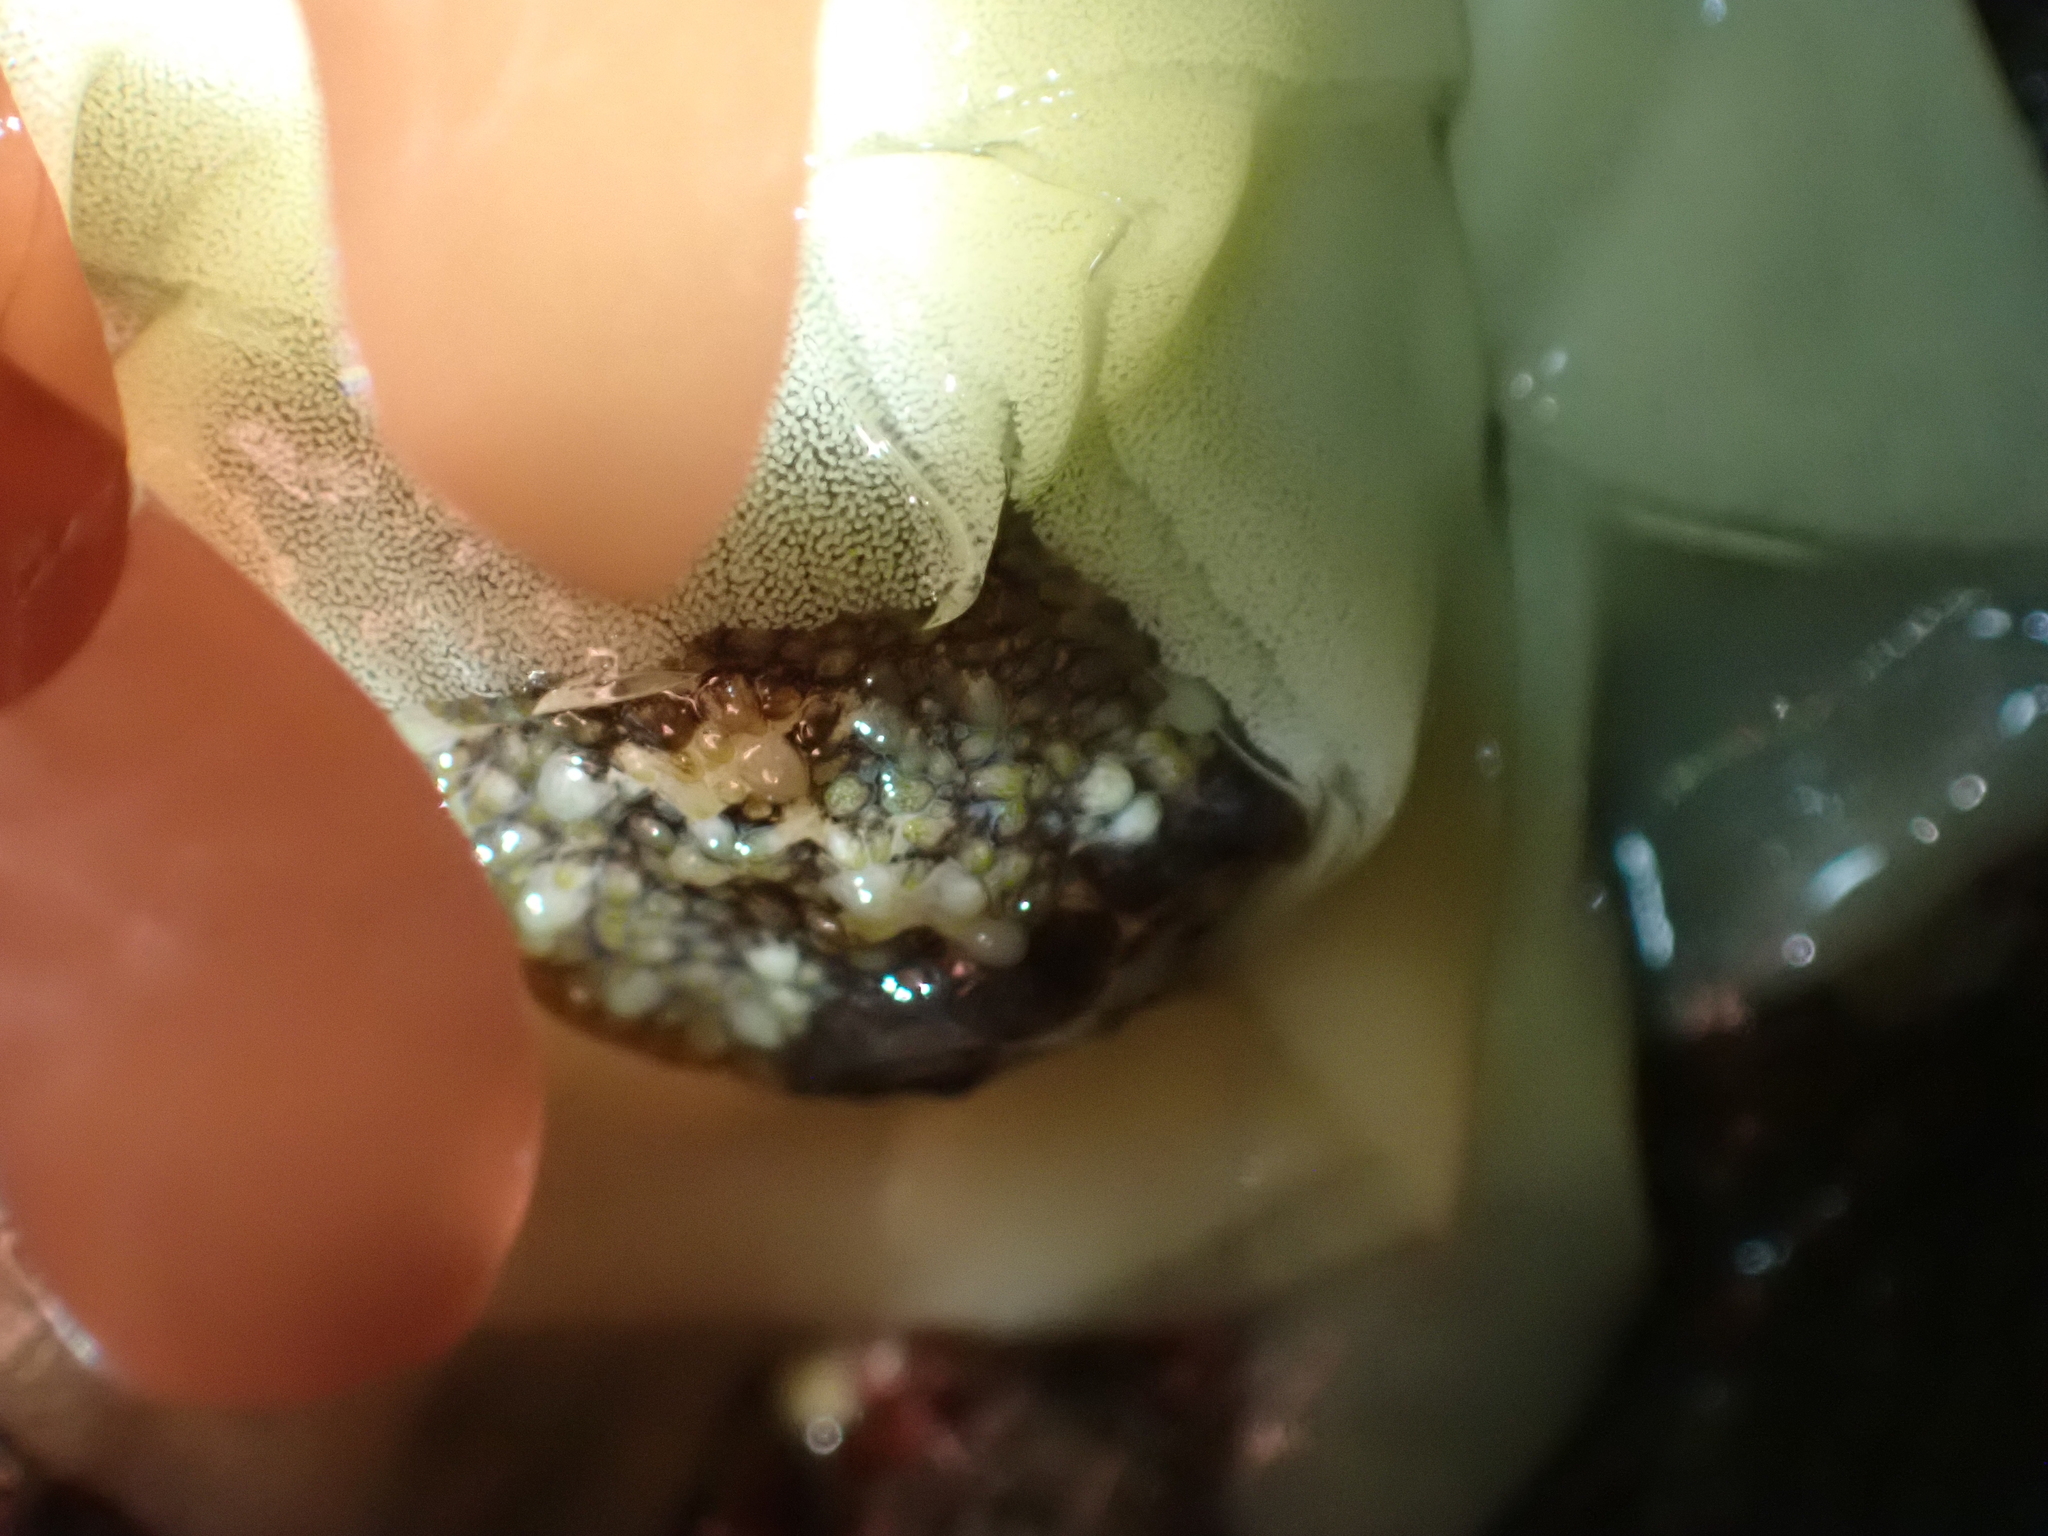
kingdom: Animalia
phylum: Mollusca
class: Gastropoda
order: Nudibranchia
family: Onchidorididae
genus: Onchidoris
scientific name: Onchidoris bilamellata
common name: Barnacle-eating onchidoris
